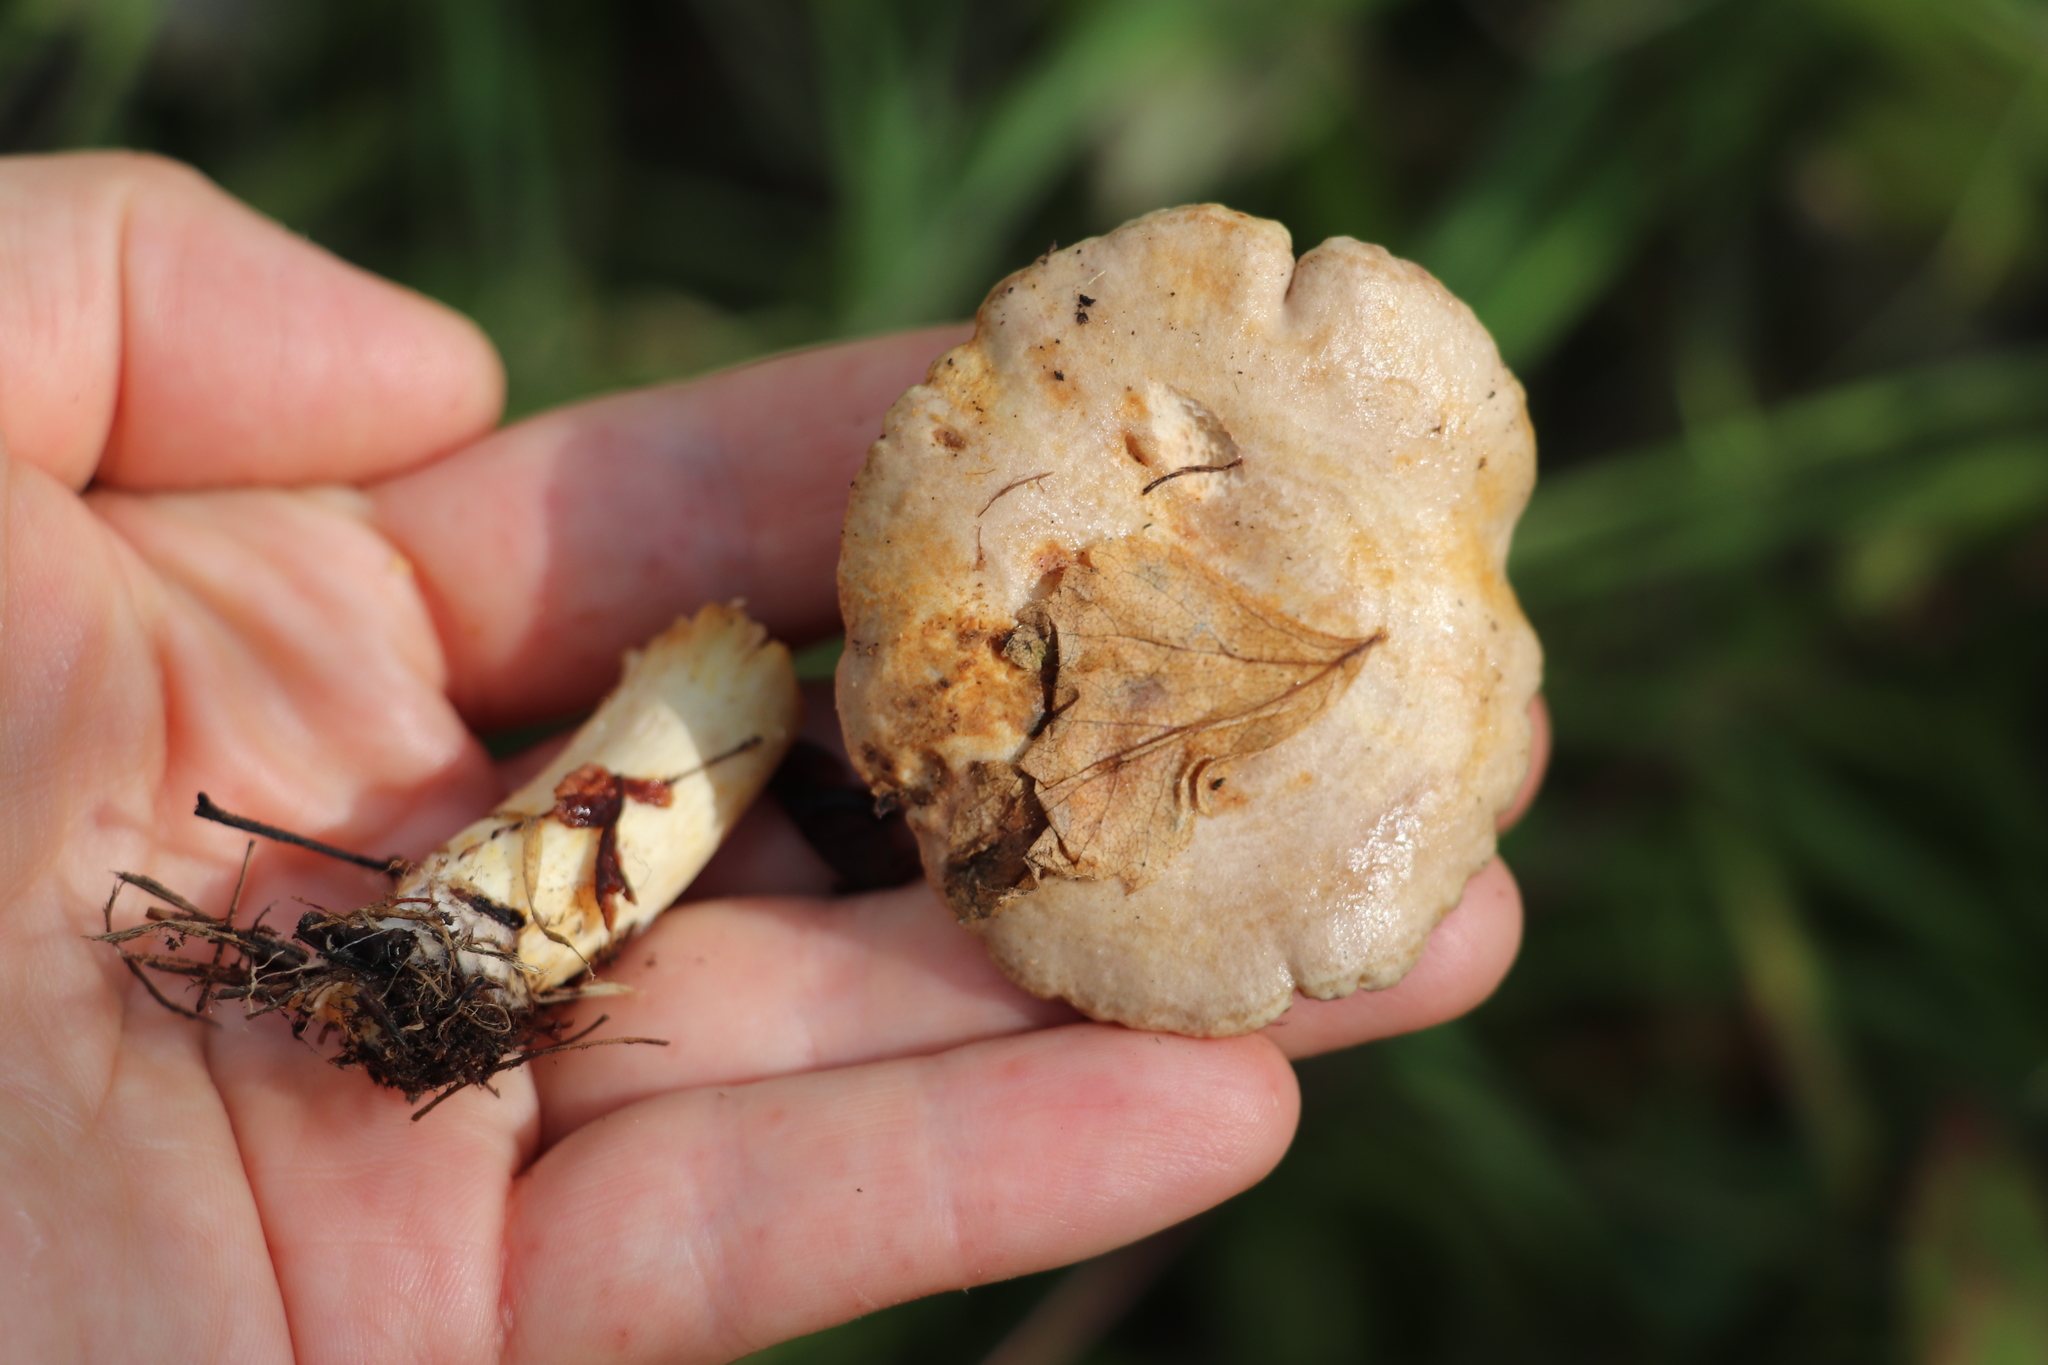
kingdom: Fungi
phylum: Ascomycota
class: Sordariomycetes
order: Hypocreales
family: Hypocreaceae
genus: Hypomyces
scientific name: Hypomyces lateritius
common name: Ochre gillgobbler
